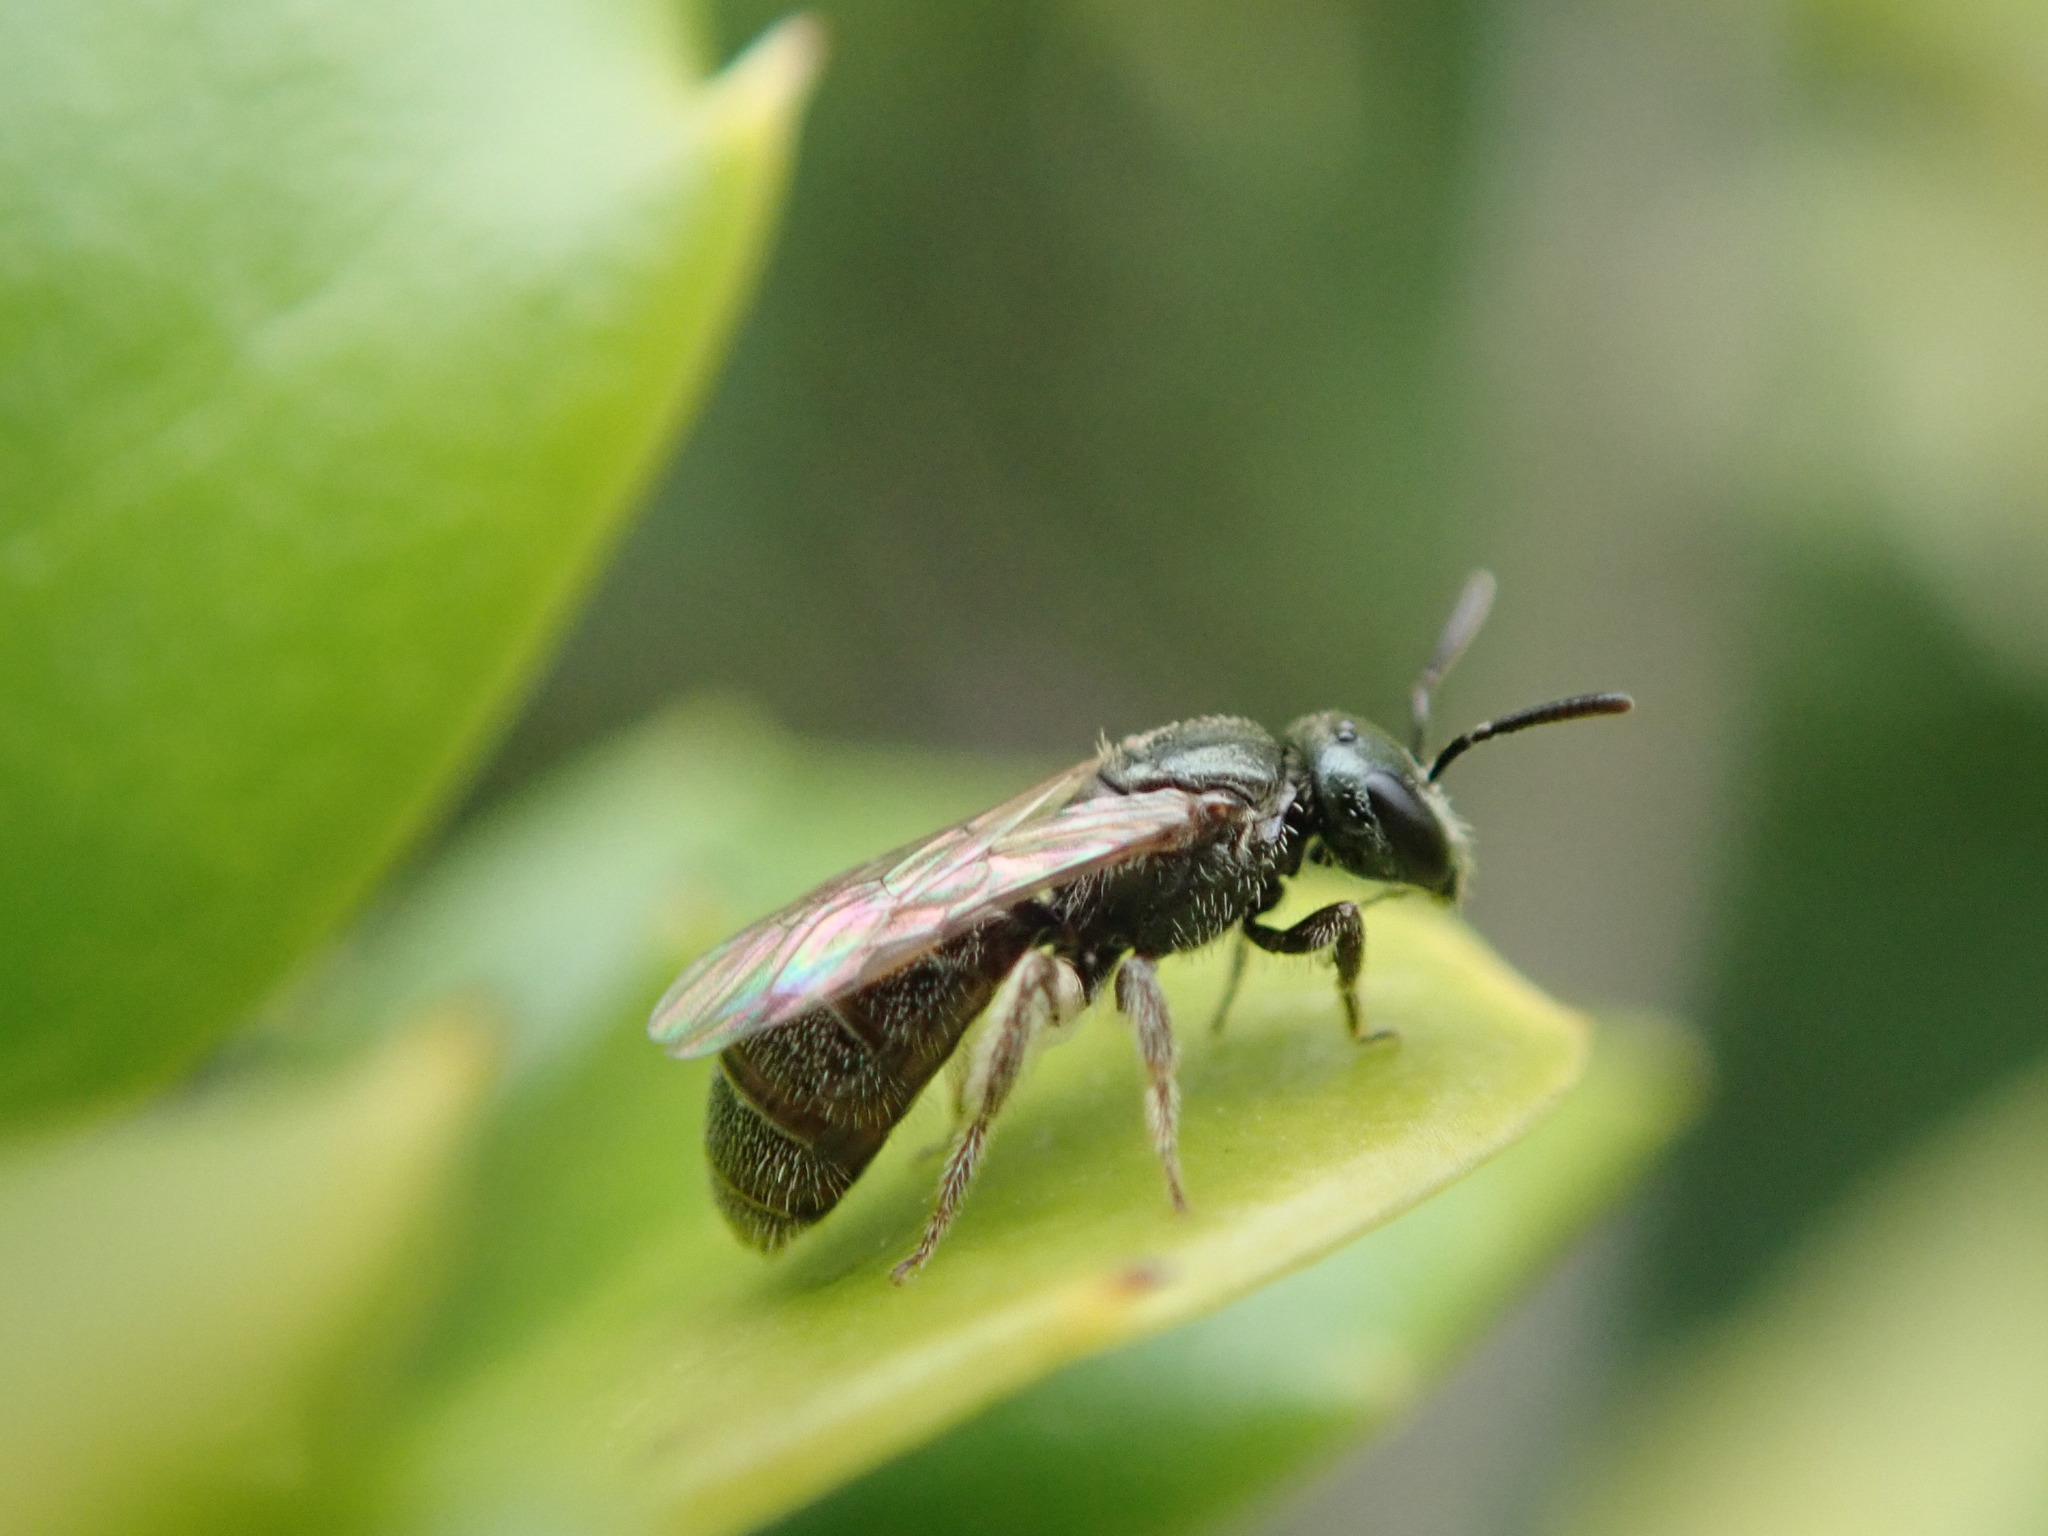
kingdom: Animalia
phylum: Arthropoda
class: Insecta
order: Hymenoptera
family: Halictidae
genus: Lasioglossum
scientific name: Lasioglossum imitatum
